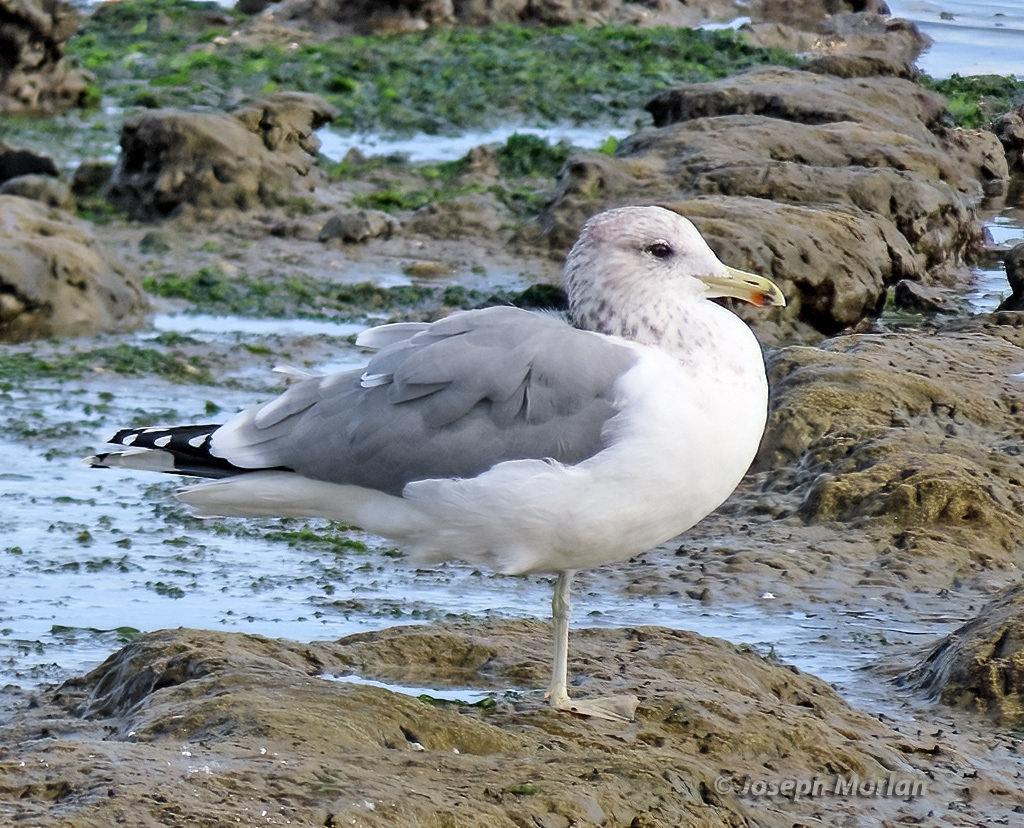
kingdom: Animalia
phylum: Chordata
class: Aves
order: Charadriiformes
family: Laridae
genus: Larus
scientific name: Larus californicus
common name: California gull
